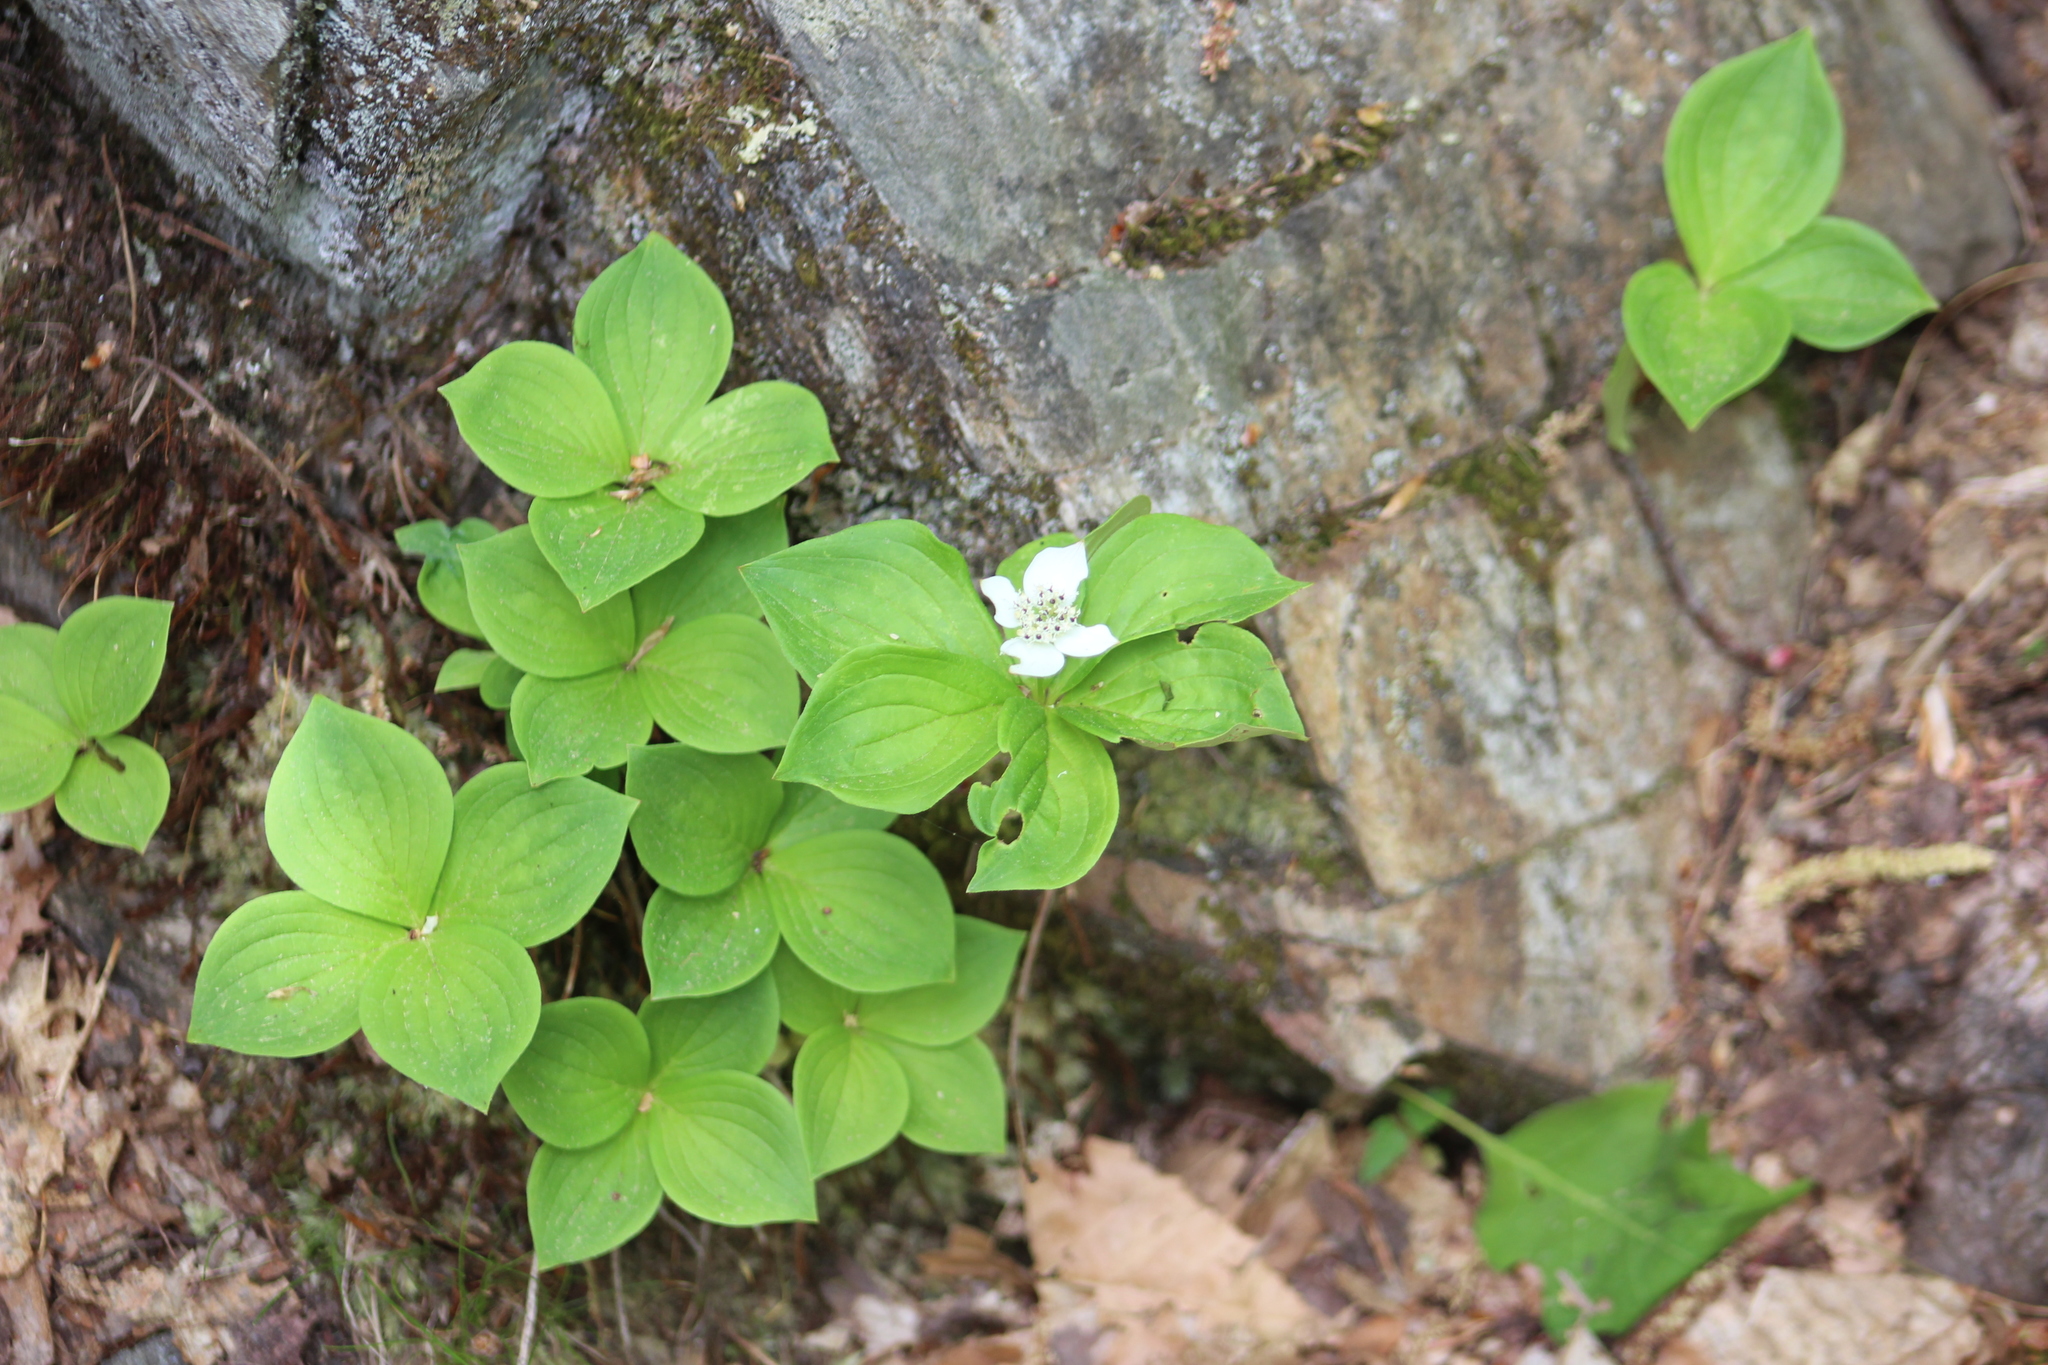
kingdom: Plantae
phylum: Tracheophyta
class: Magnoliopsida
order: Cornales
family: Cornaceae
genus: Cornus
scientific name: Cornus canadensis
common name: Creeping dogwood
